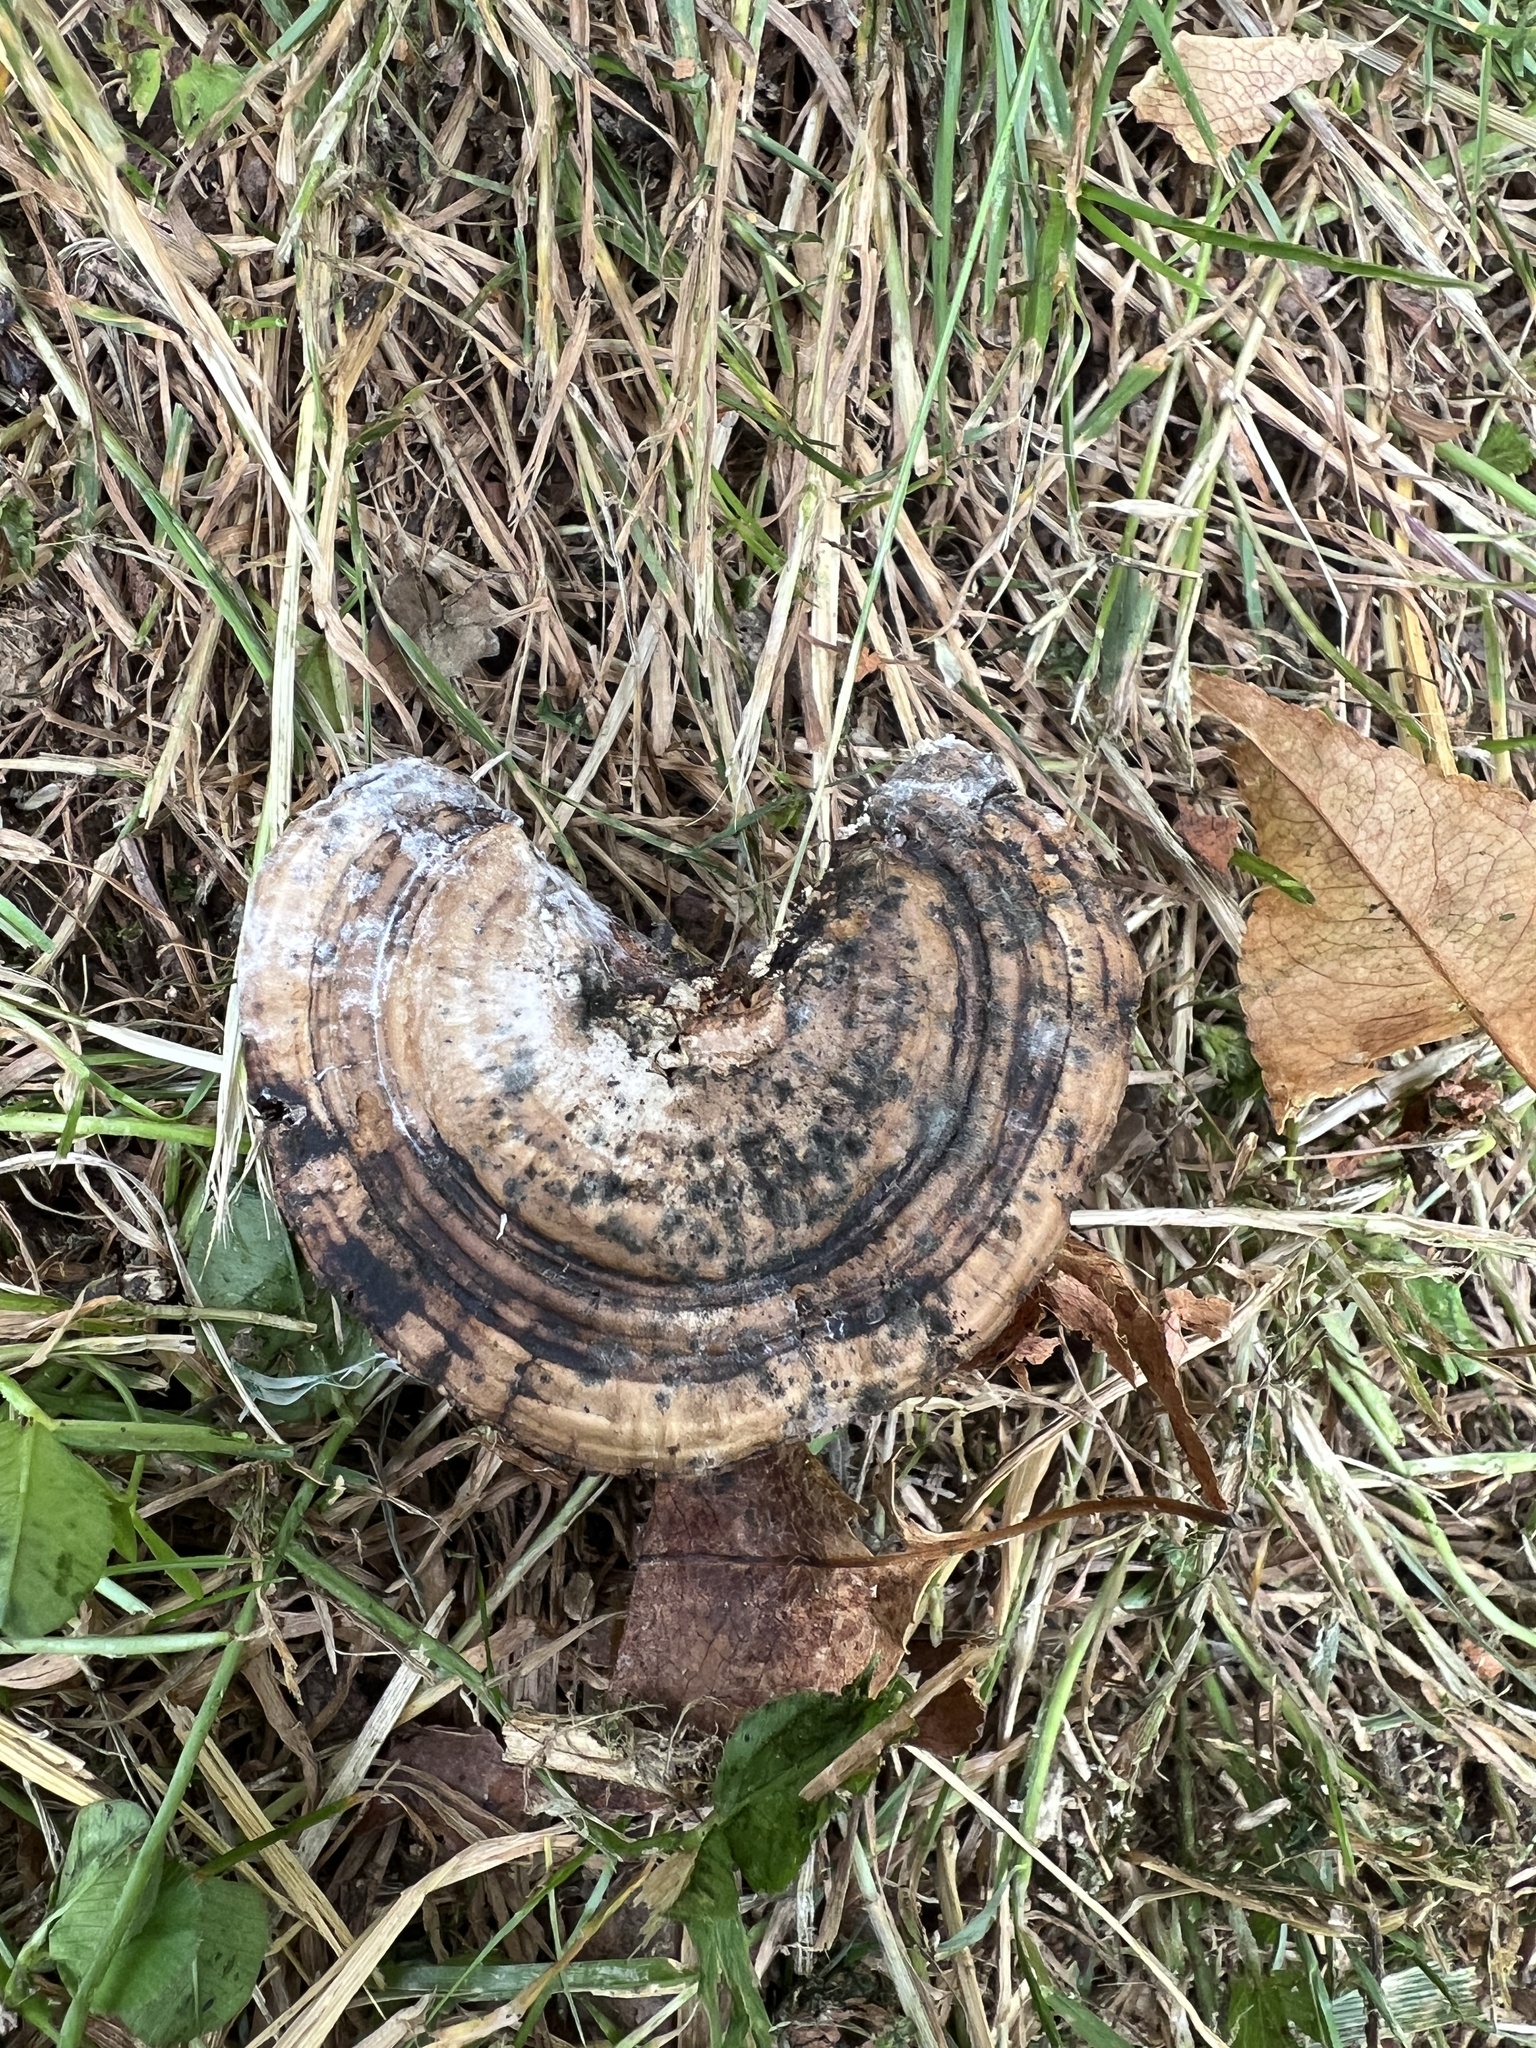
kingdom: Fungi
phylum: Basidiomycota
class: Agaricomycetes
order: Polyporales
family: Polyporaceae
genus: Daedaleopsis
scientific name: Daedaleopsis confragosa
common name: Blushing bracket
